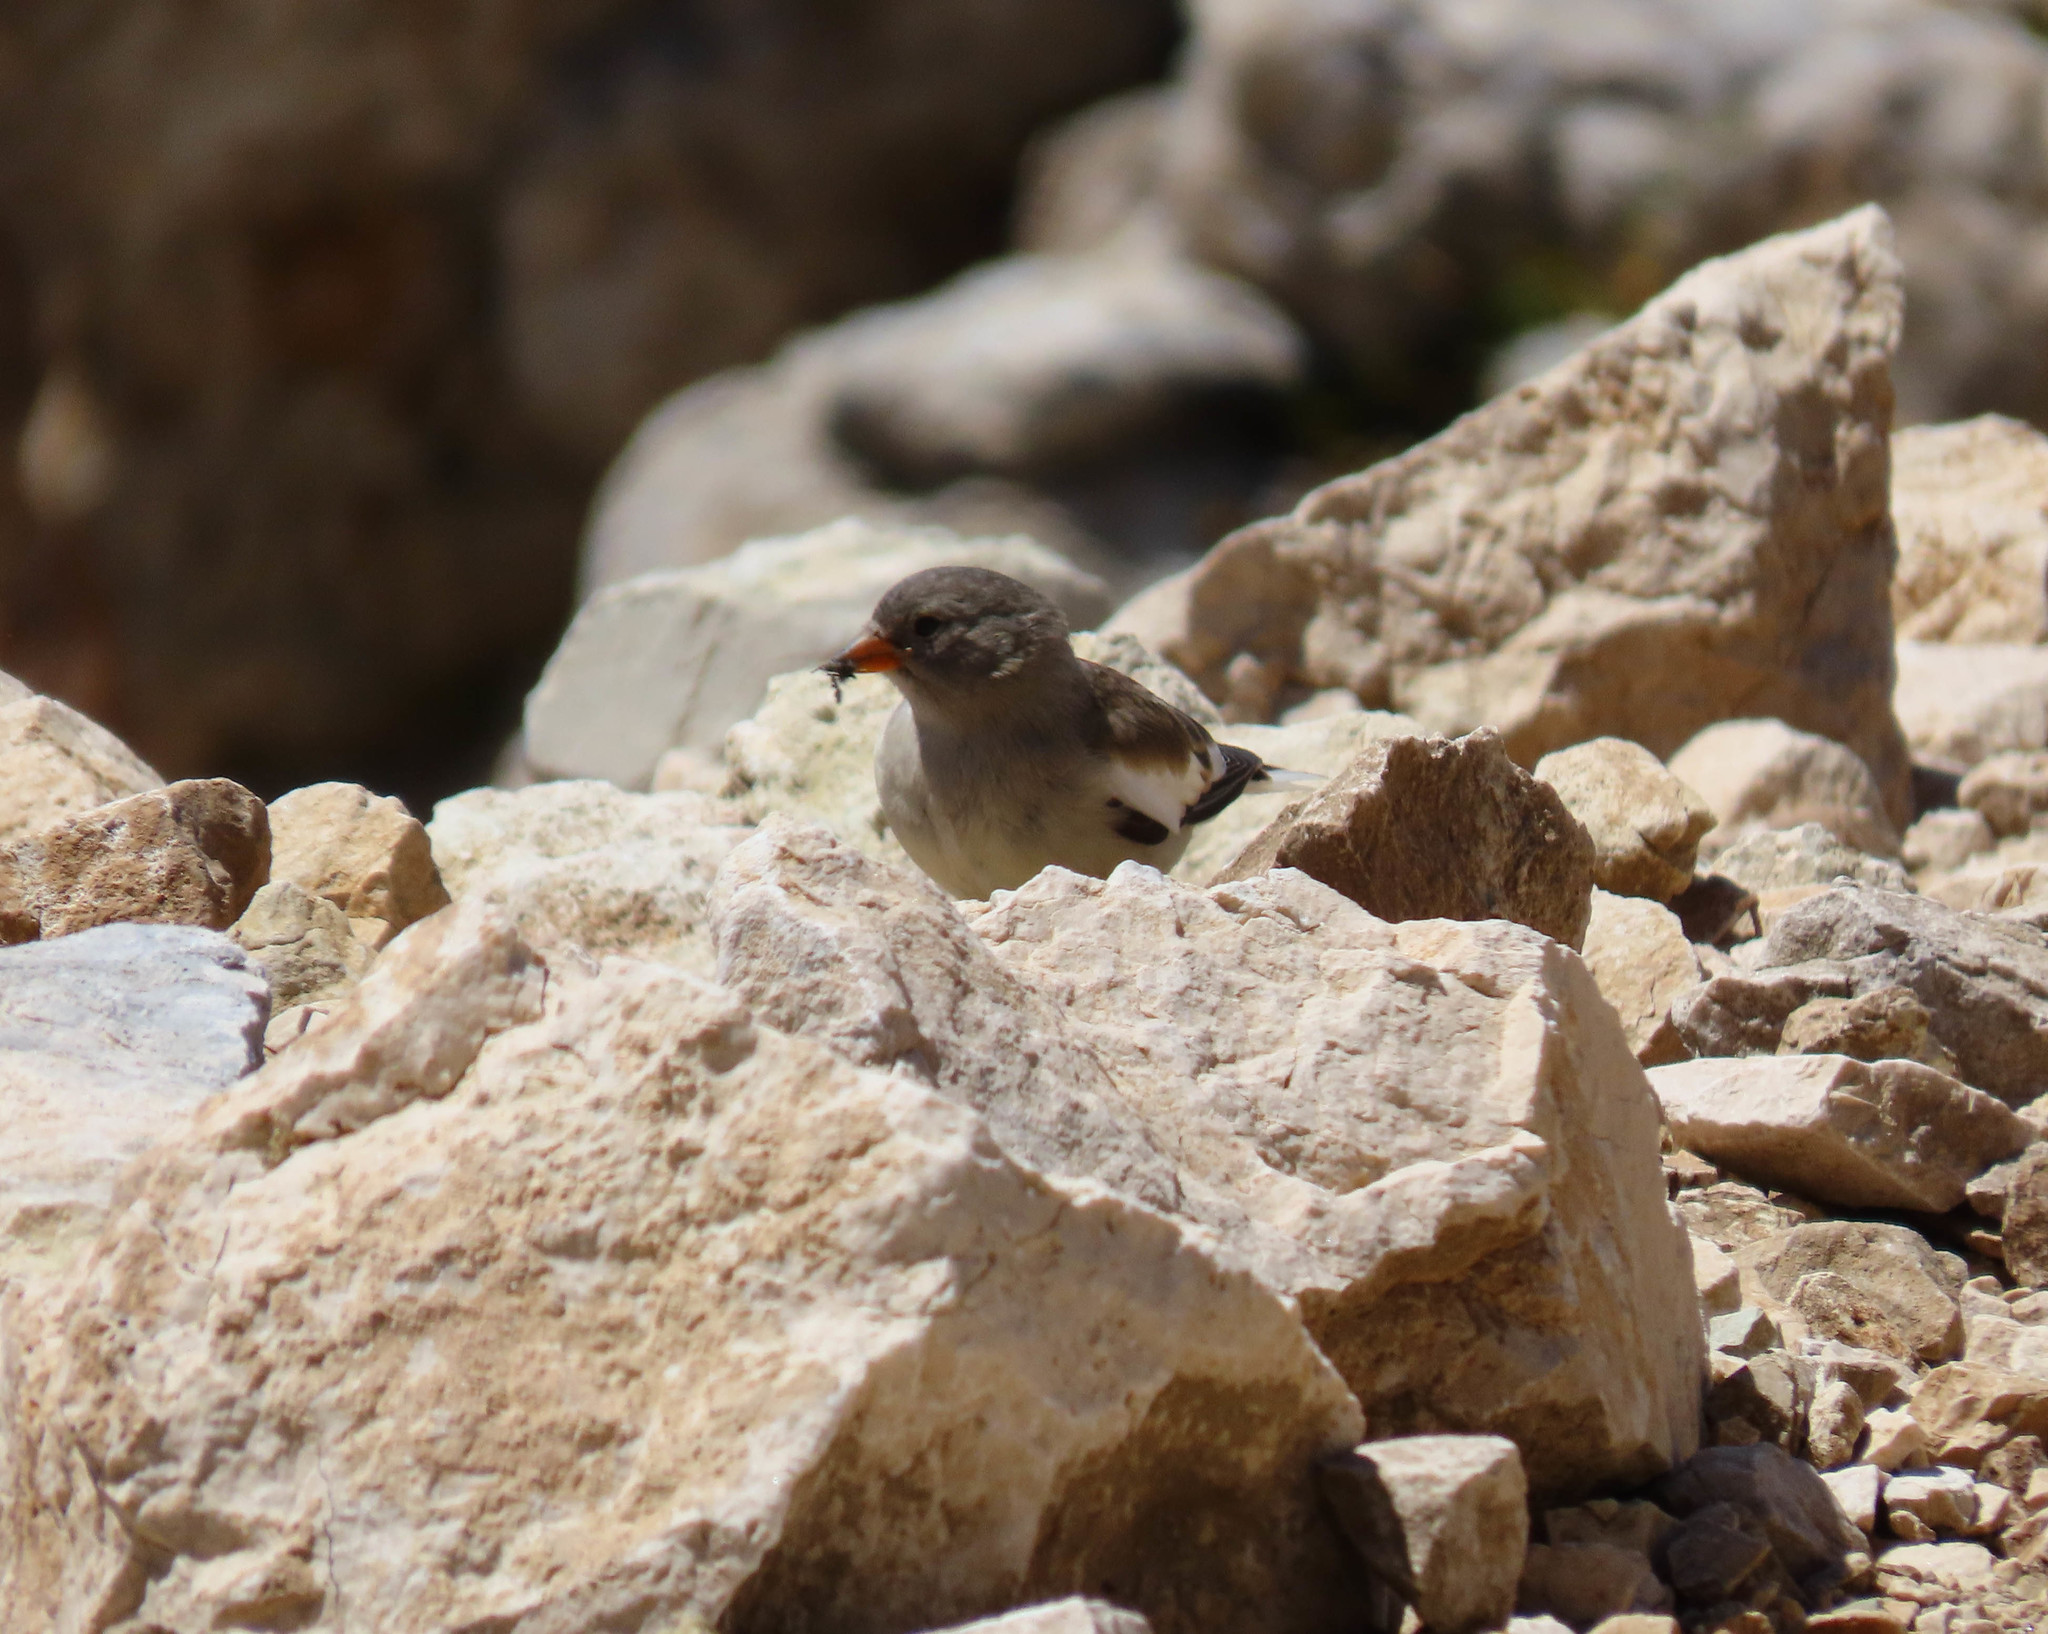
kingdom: Animalia
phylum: Chordata
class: Aves
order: Passeriformes
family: Passeridae
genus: Montifringilla
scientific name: Montifringilla nivalis
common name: White-winged snowfinch
